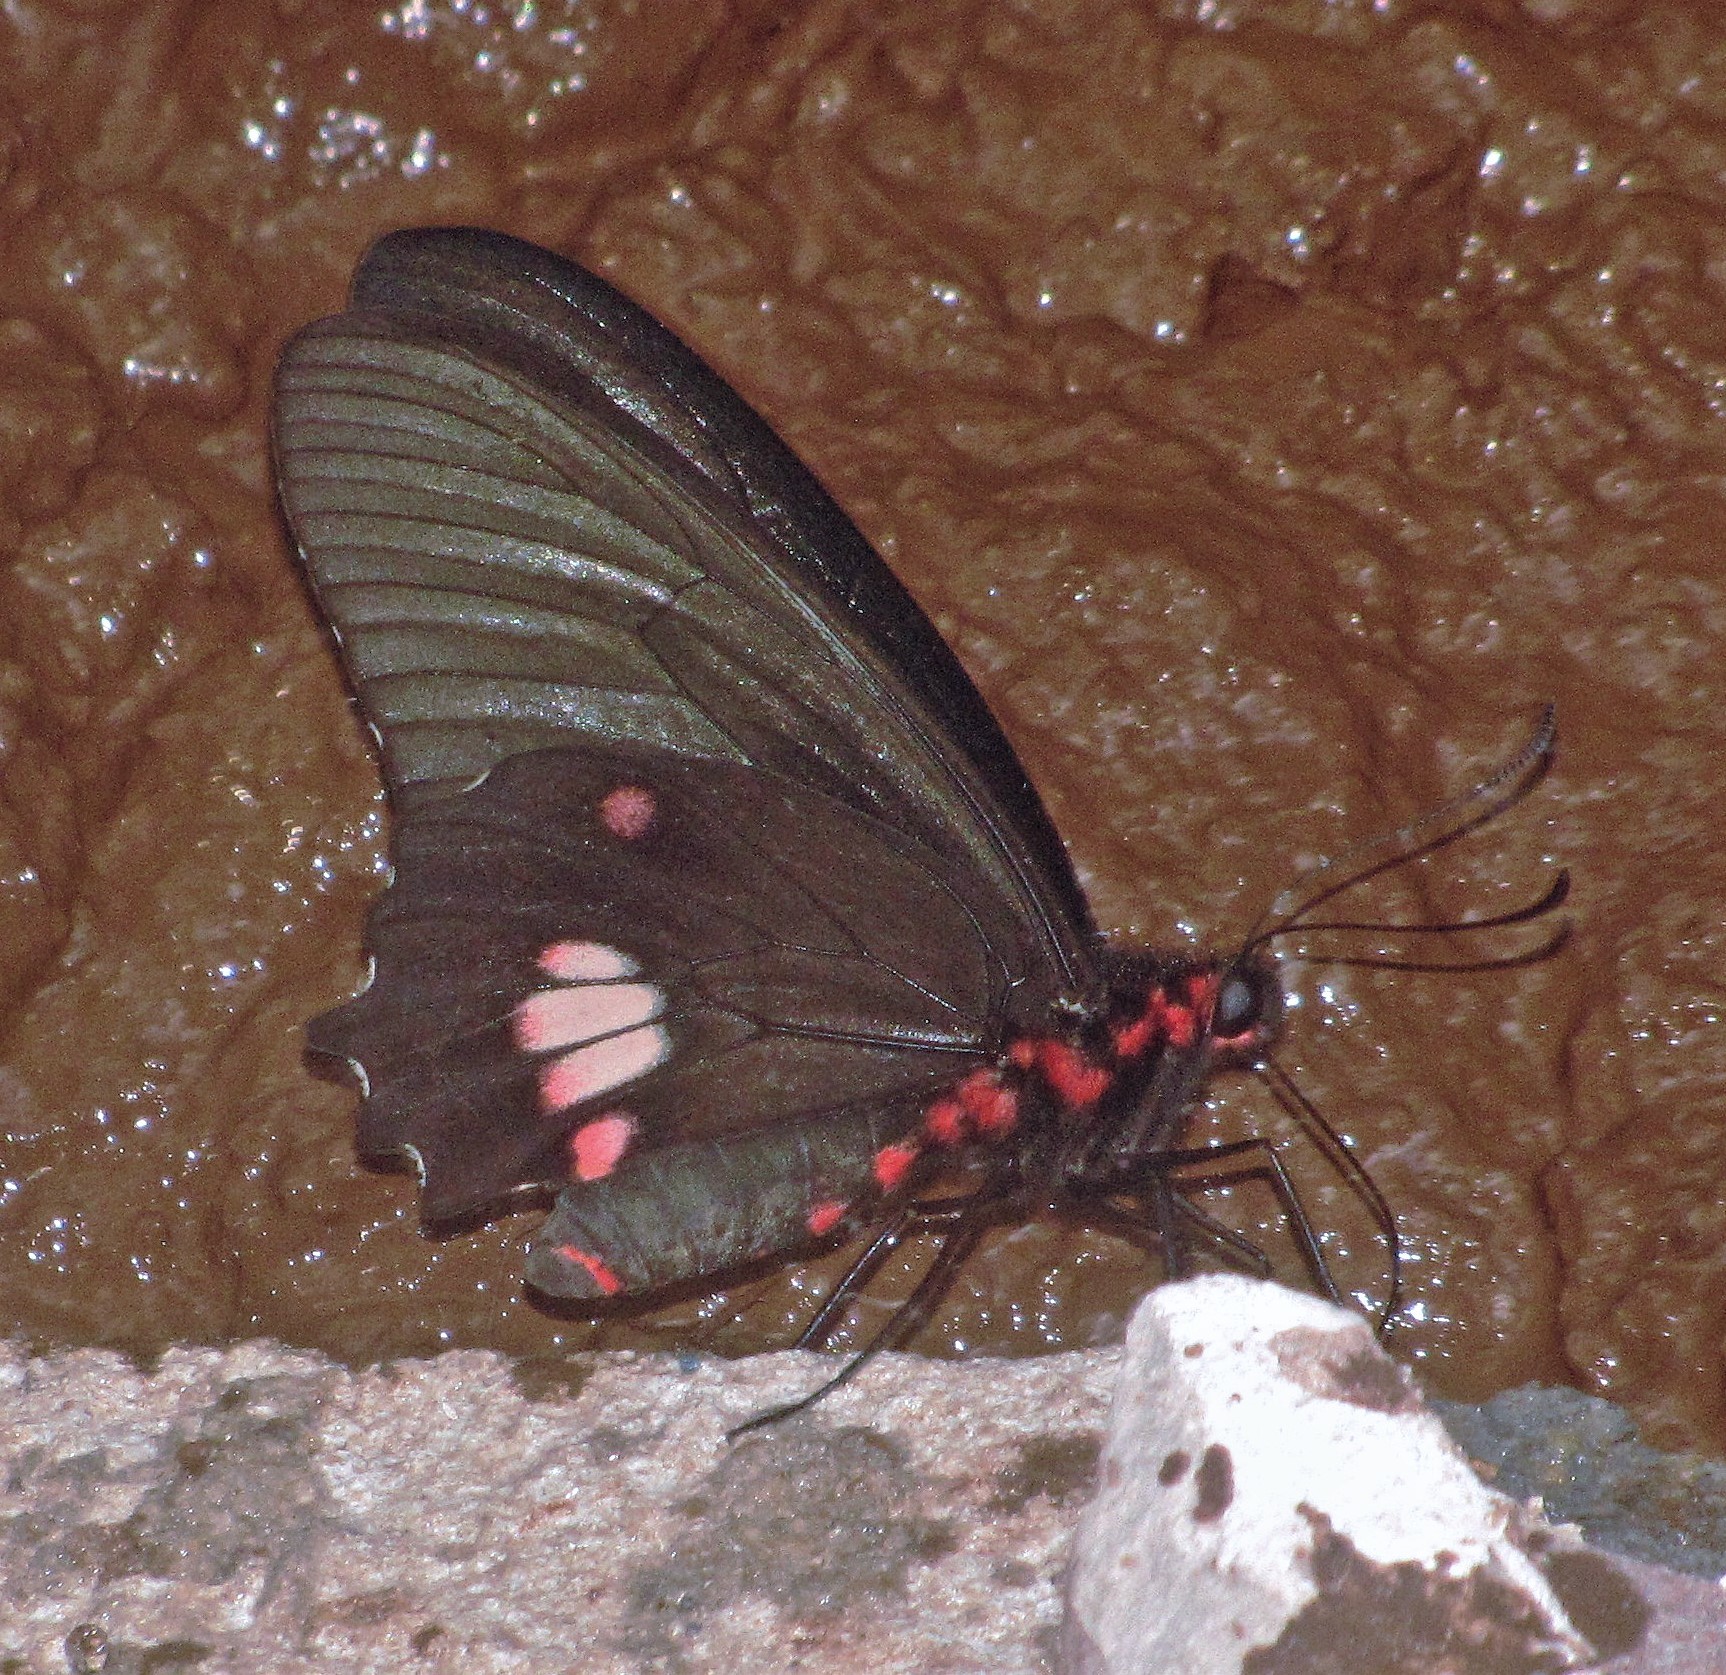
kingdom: Animalia
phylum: Arthropoda
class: Insecta
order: Lepidoptera
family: Papilionidae
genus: Parides
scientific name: Parides anchises
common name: Cattle heart
